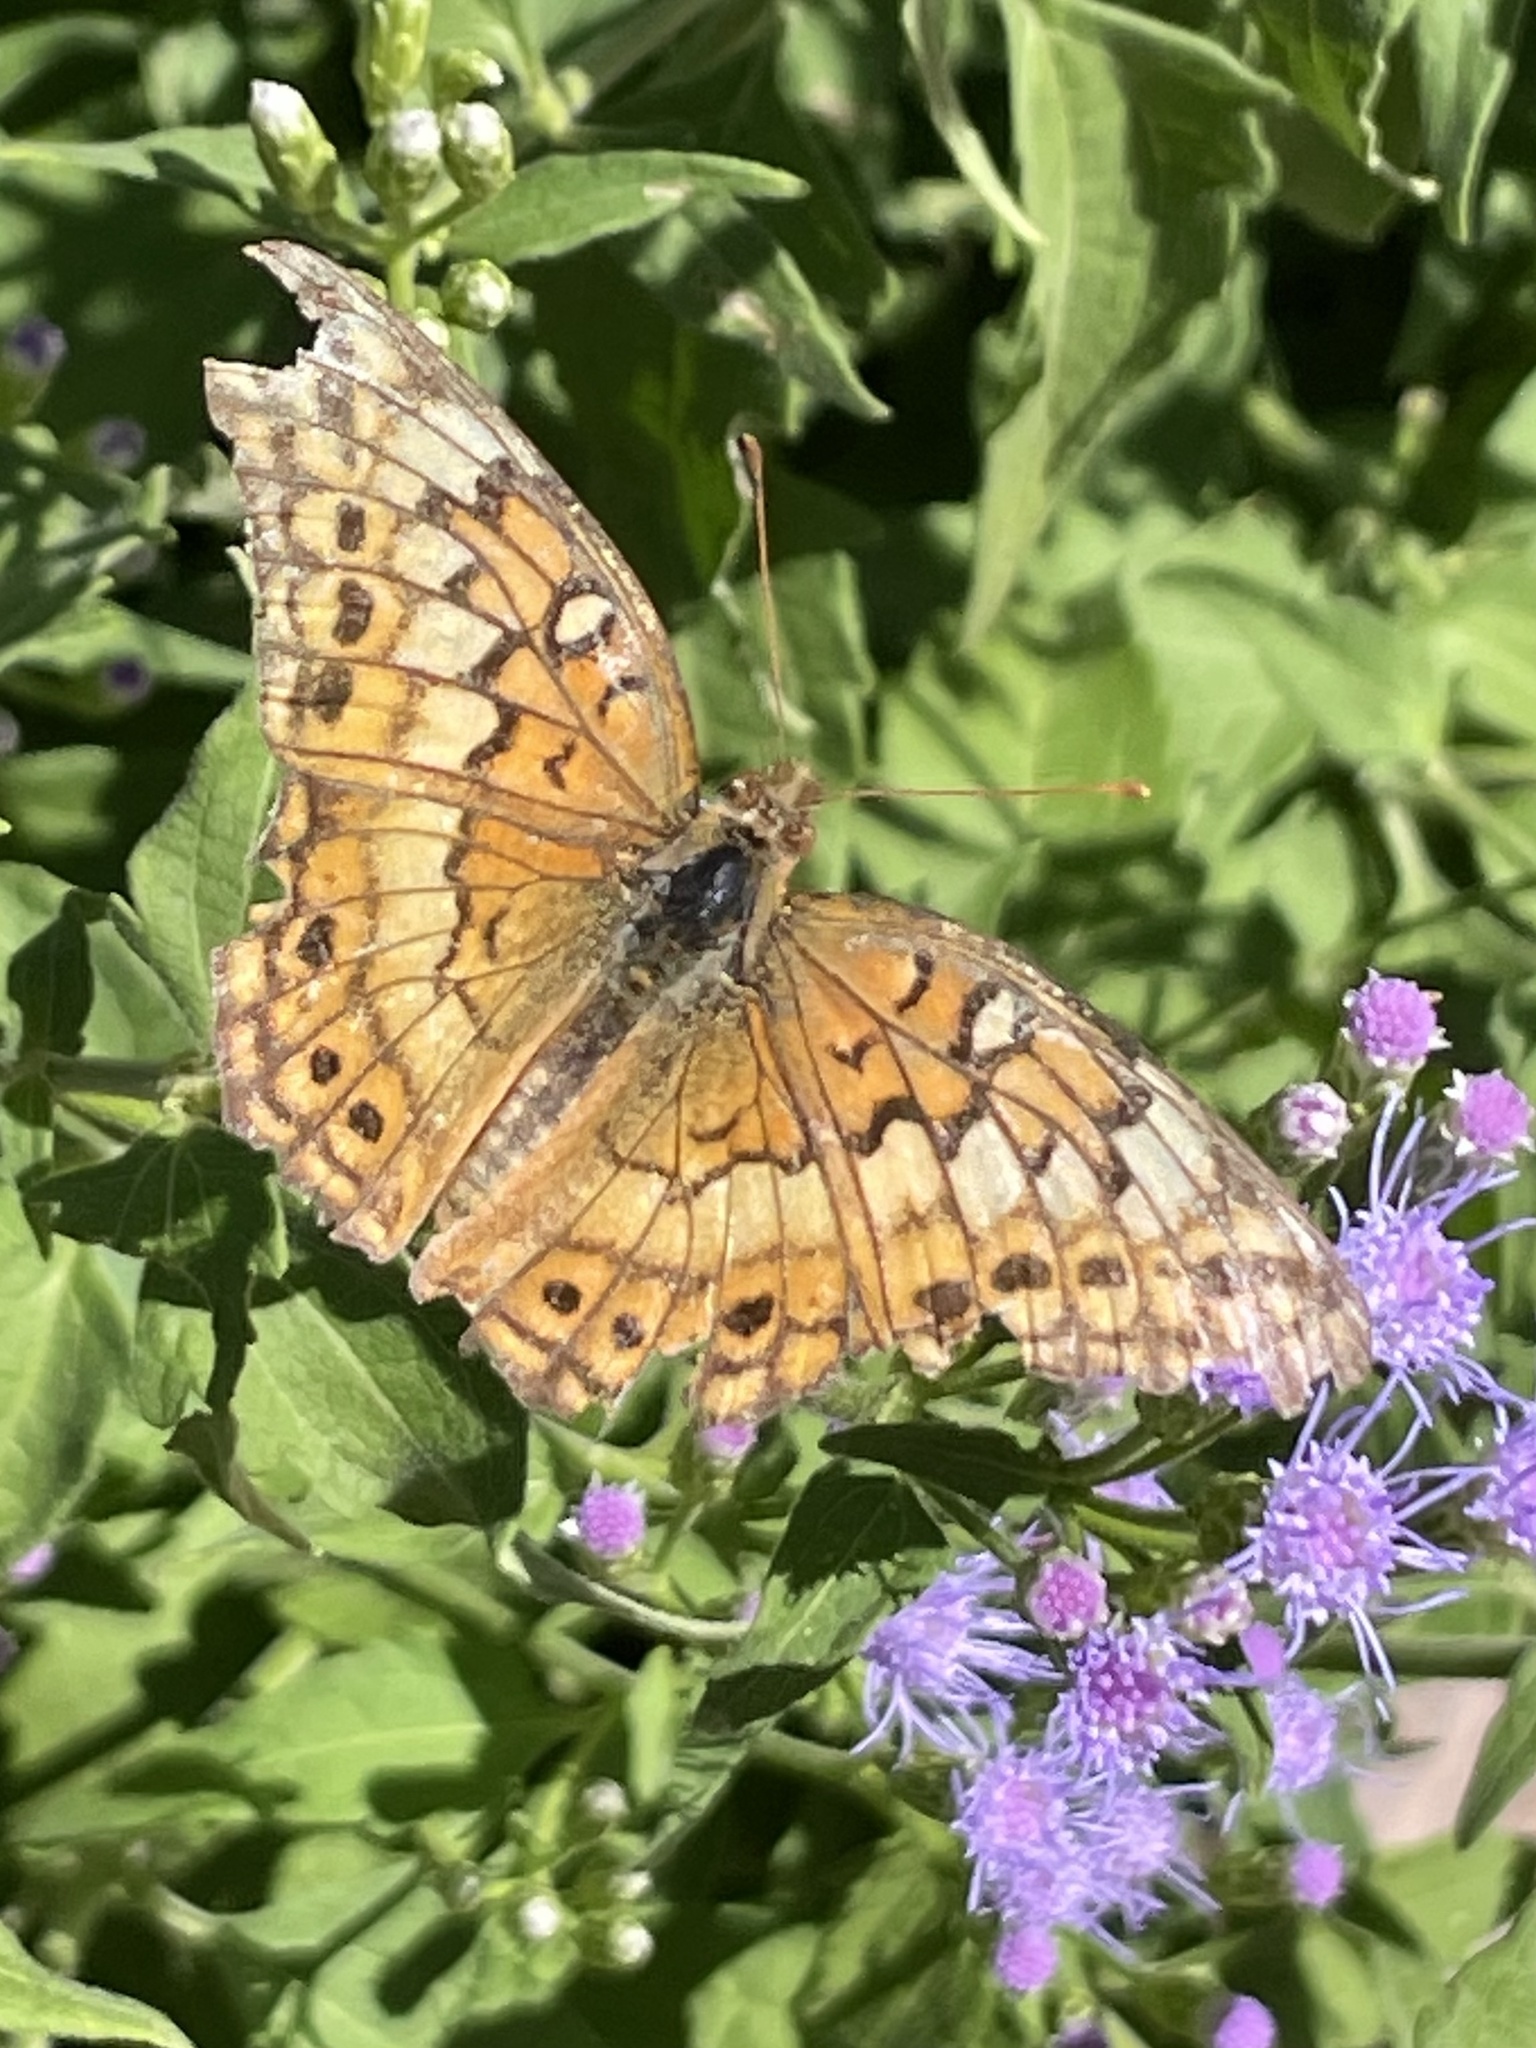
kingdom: Animalia
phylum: Arthropoda
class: Insecta
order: Lepidoptera
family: Nymphalidae
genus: Euptoieta
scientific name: Euptoieta claudia
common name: Variegated fritillary
